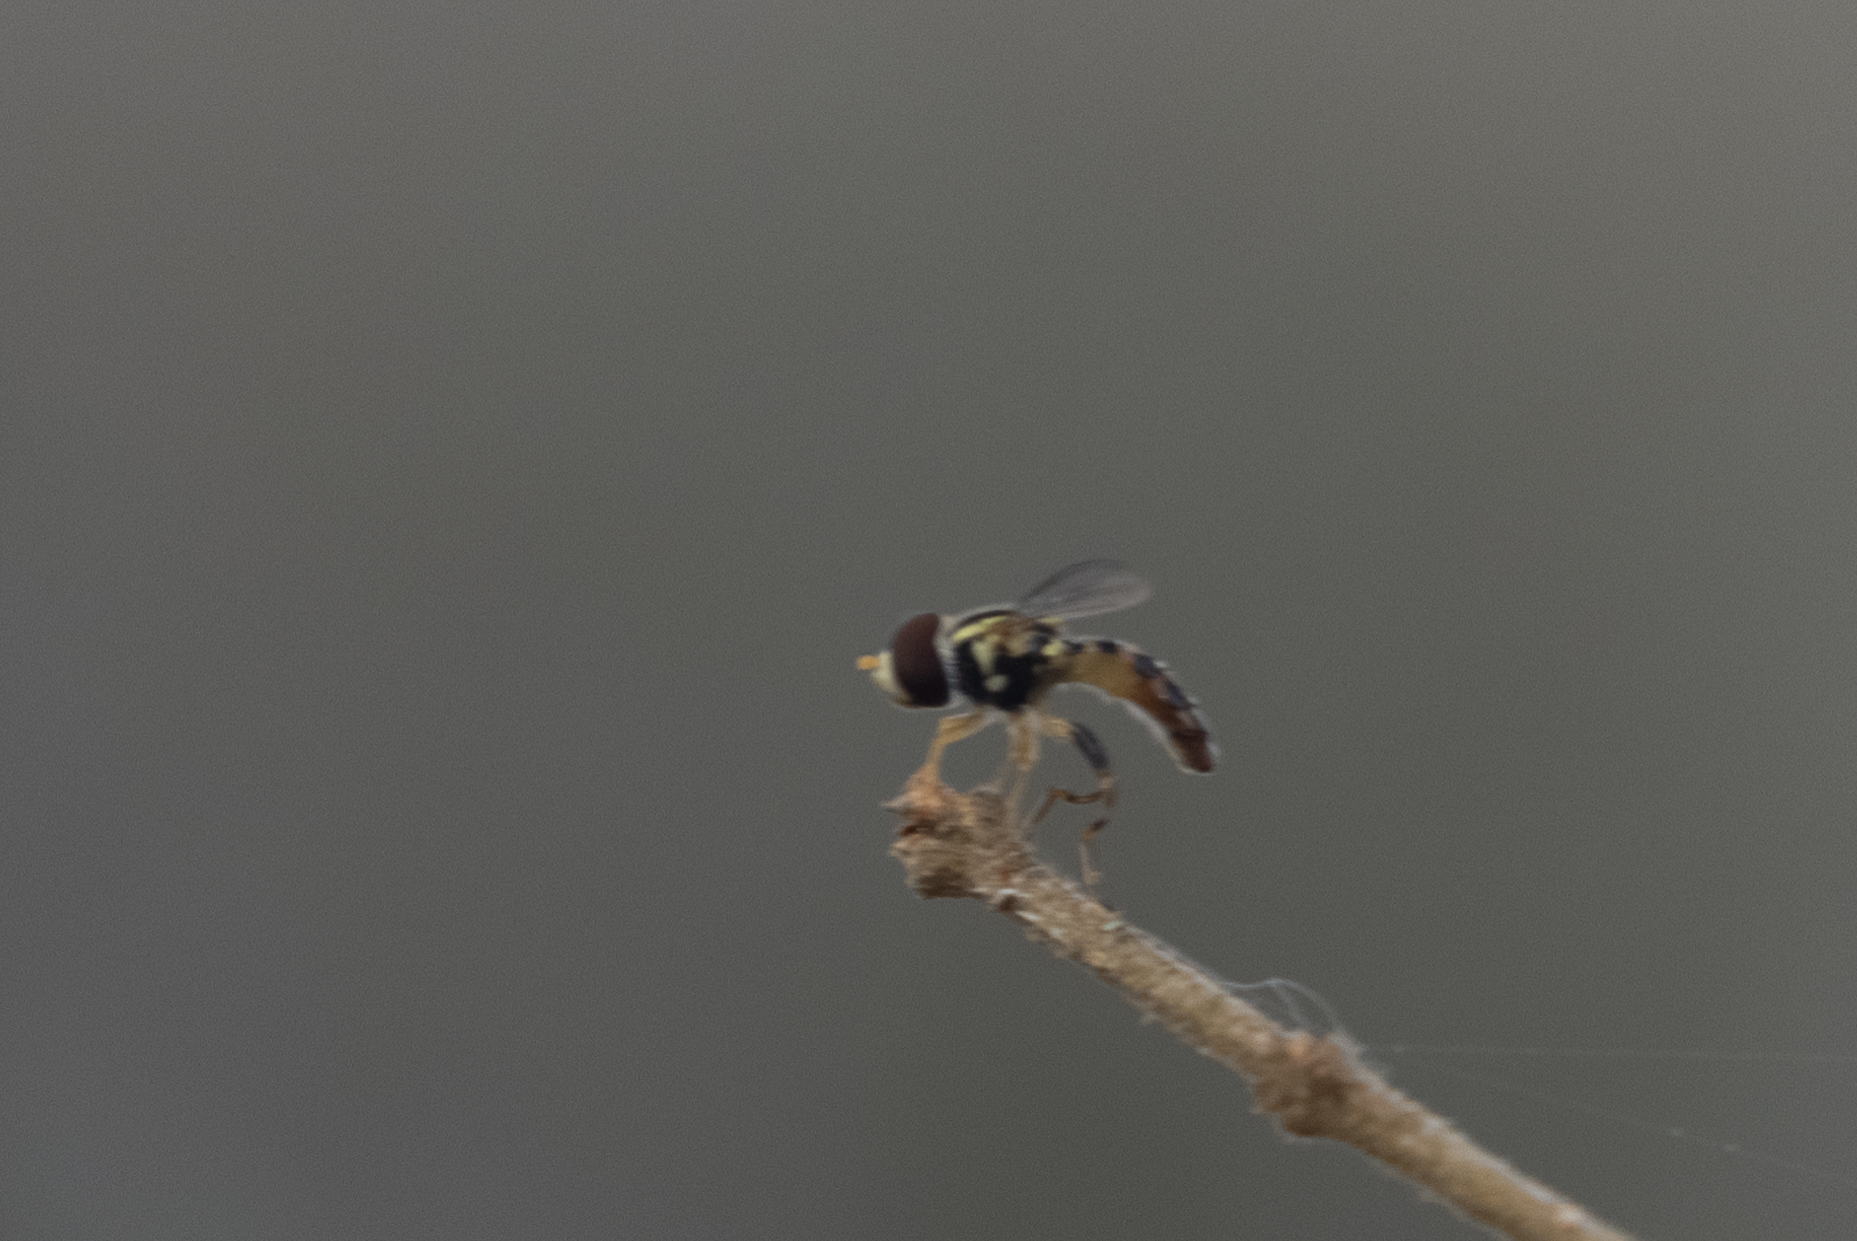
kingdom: Animalia
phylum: Arthropoda
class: Insecta
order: Diptera
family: Syrphidae
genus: Toxomerus
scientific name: Toxomerus geminatus
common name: Eastern calligrapher
